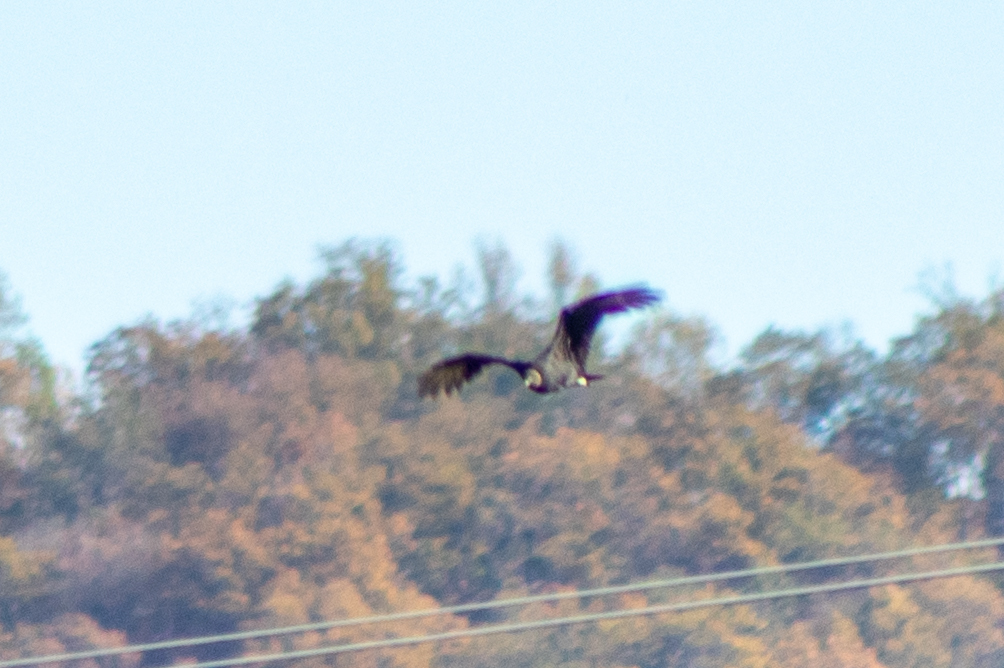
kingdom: Animalia
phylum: Chordata
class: Aves
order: Accipitriformes
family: Cathartidae
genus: Coragyps
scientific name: Coragyps atratus
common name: Black vulture
